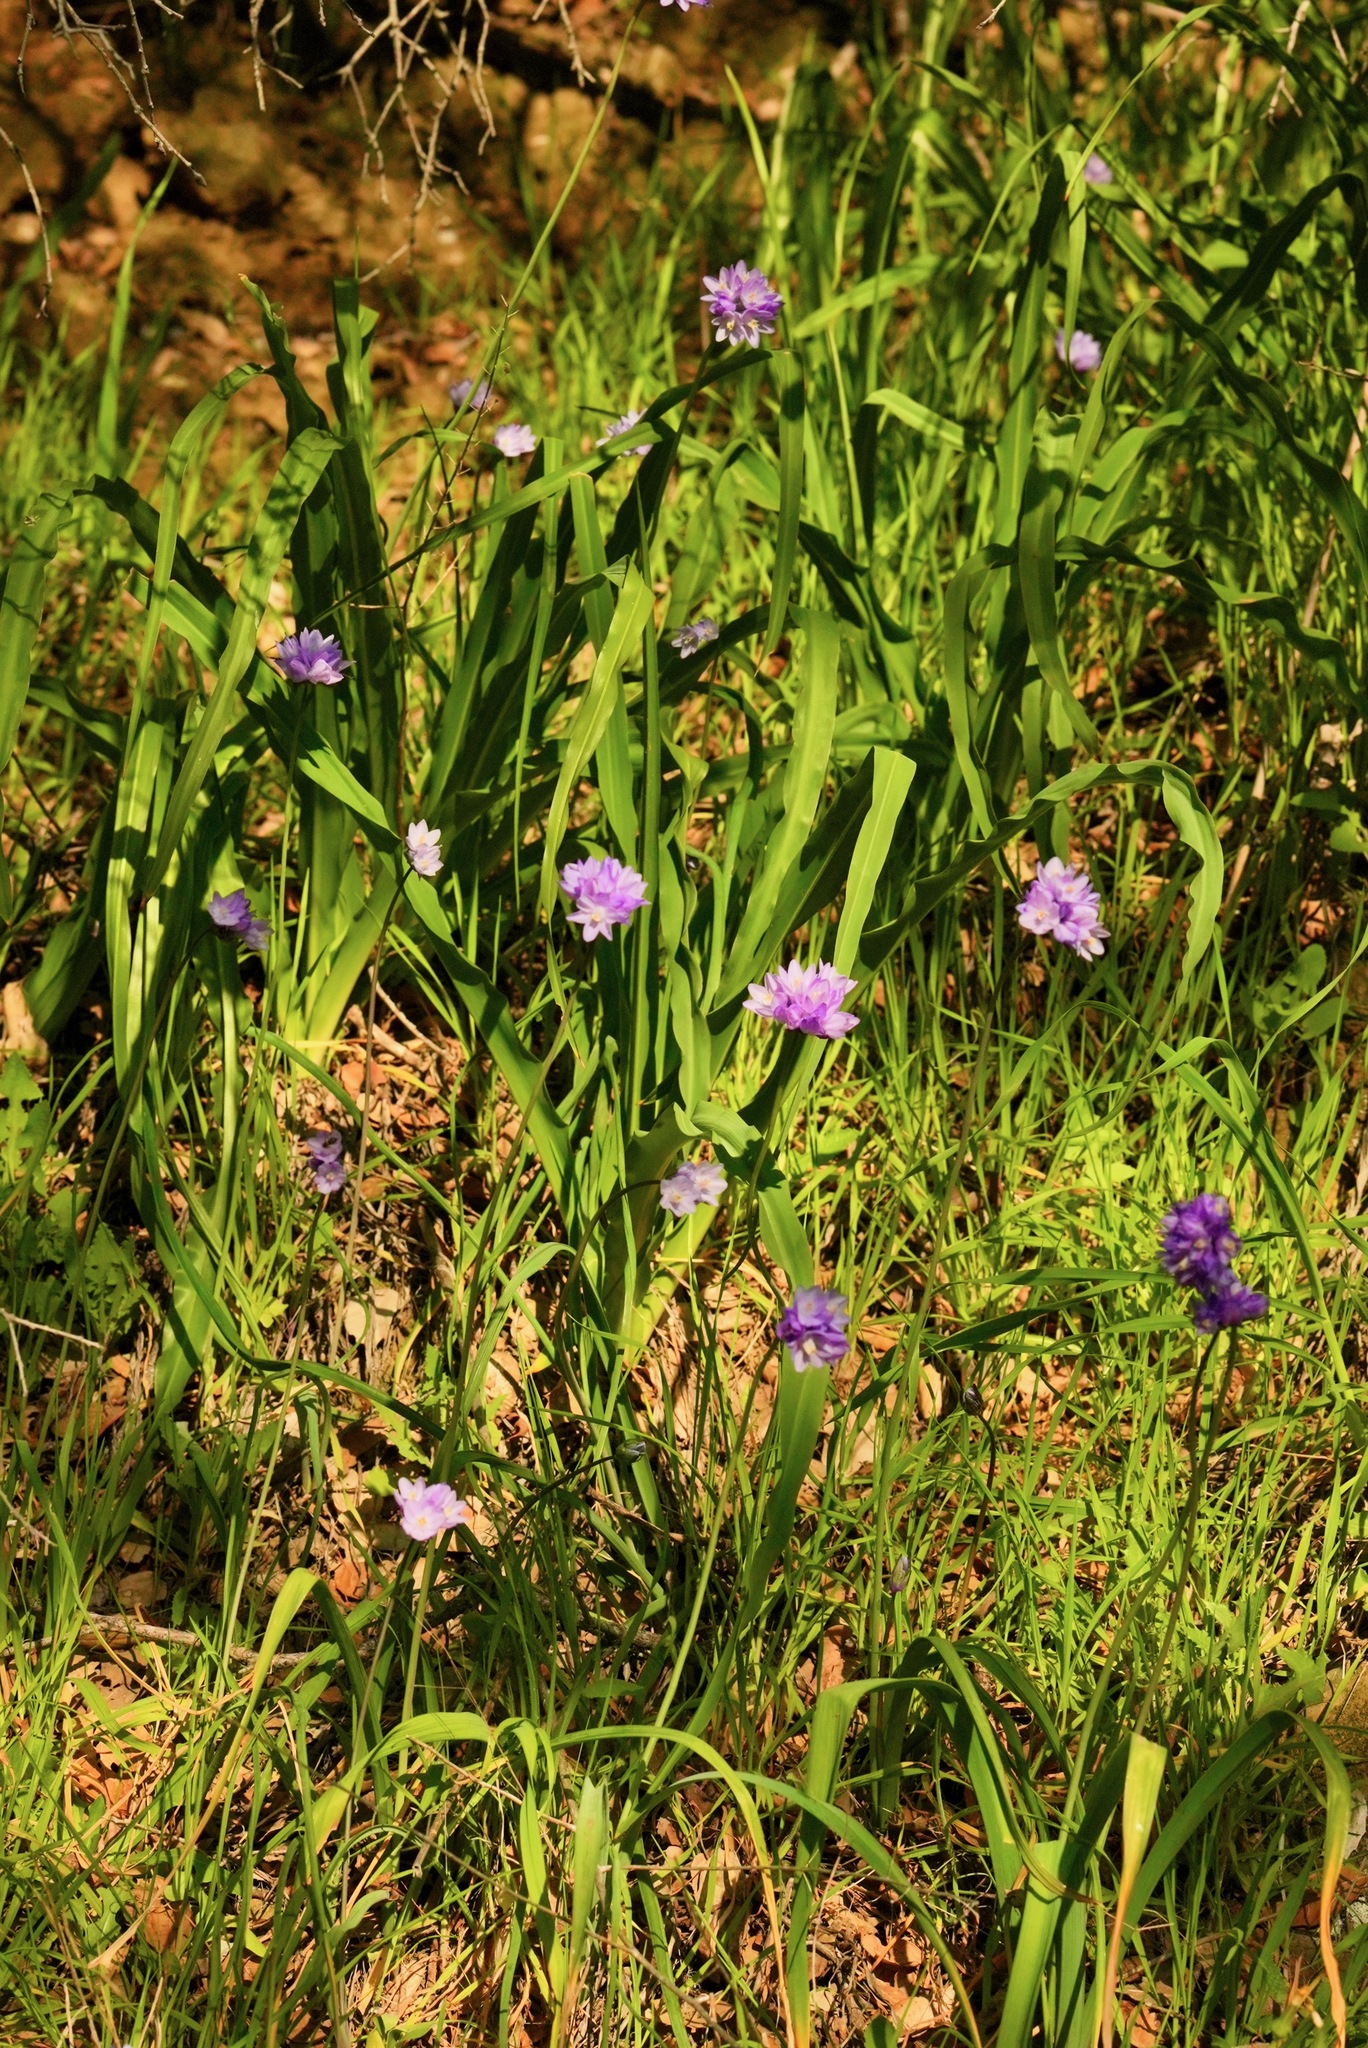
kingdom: Plantae
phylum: Tracheophyta
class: Liliopsida
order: Asparagales
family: Asparagaceae
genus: Chlorogalum
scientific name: Chlorogalum pomeridianum
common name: Amole
